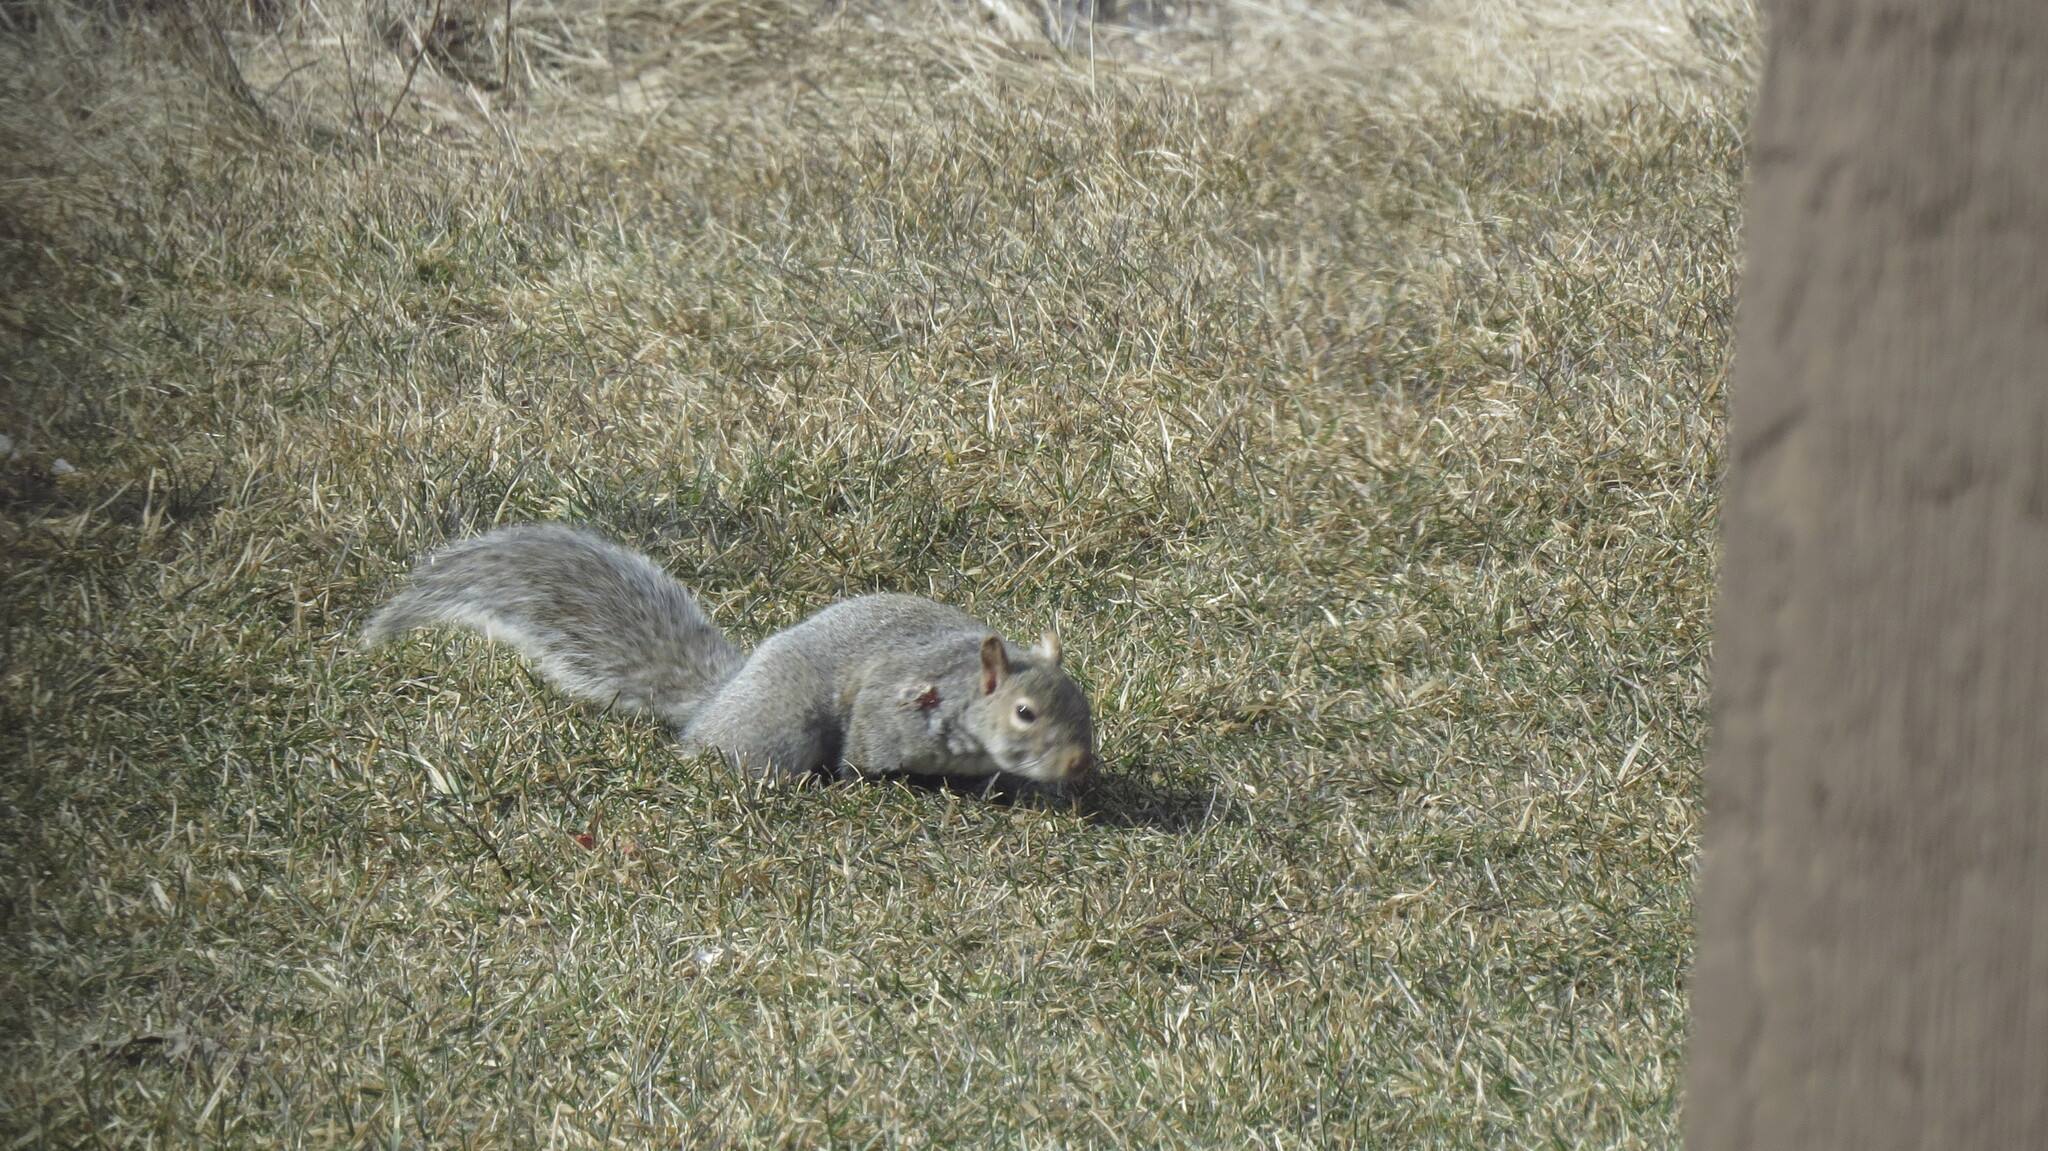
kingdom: Animalia
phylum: Chordata
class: Mammalia
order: Rodentia
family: Sciuridae
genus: Sciurus
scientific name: Sciurus carolinensis
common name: Eastern gray squirrel
